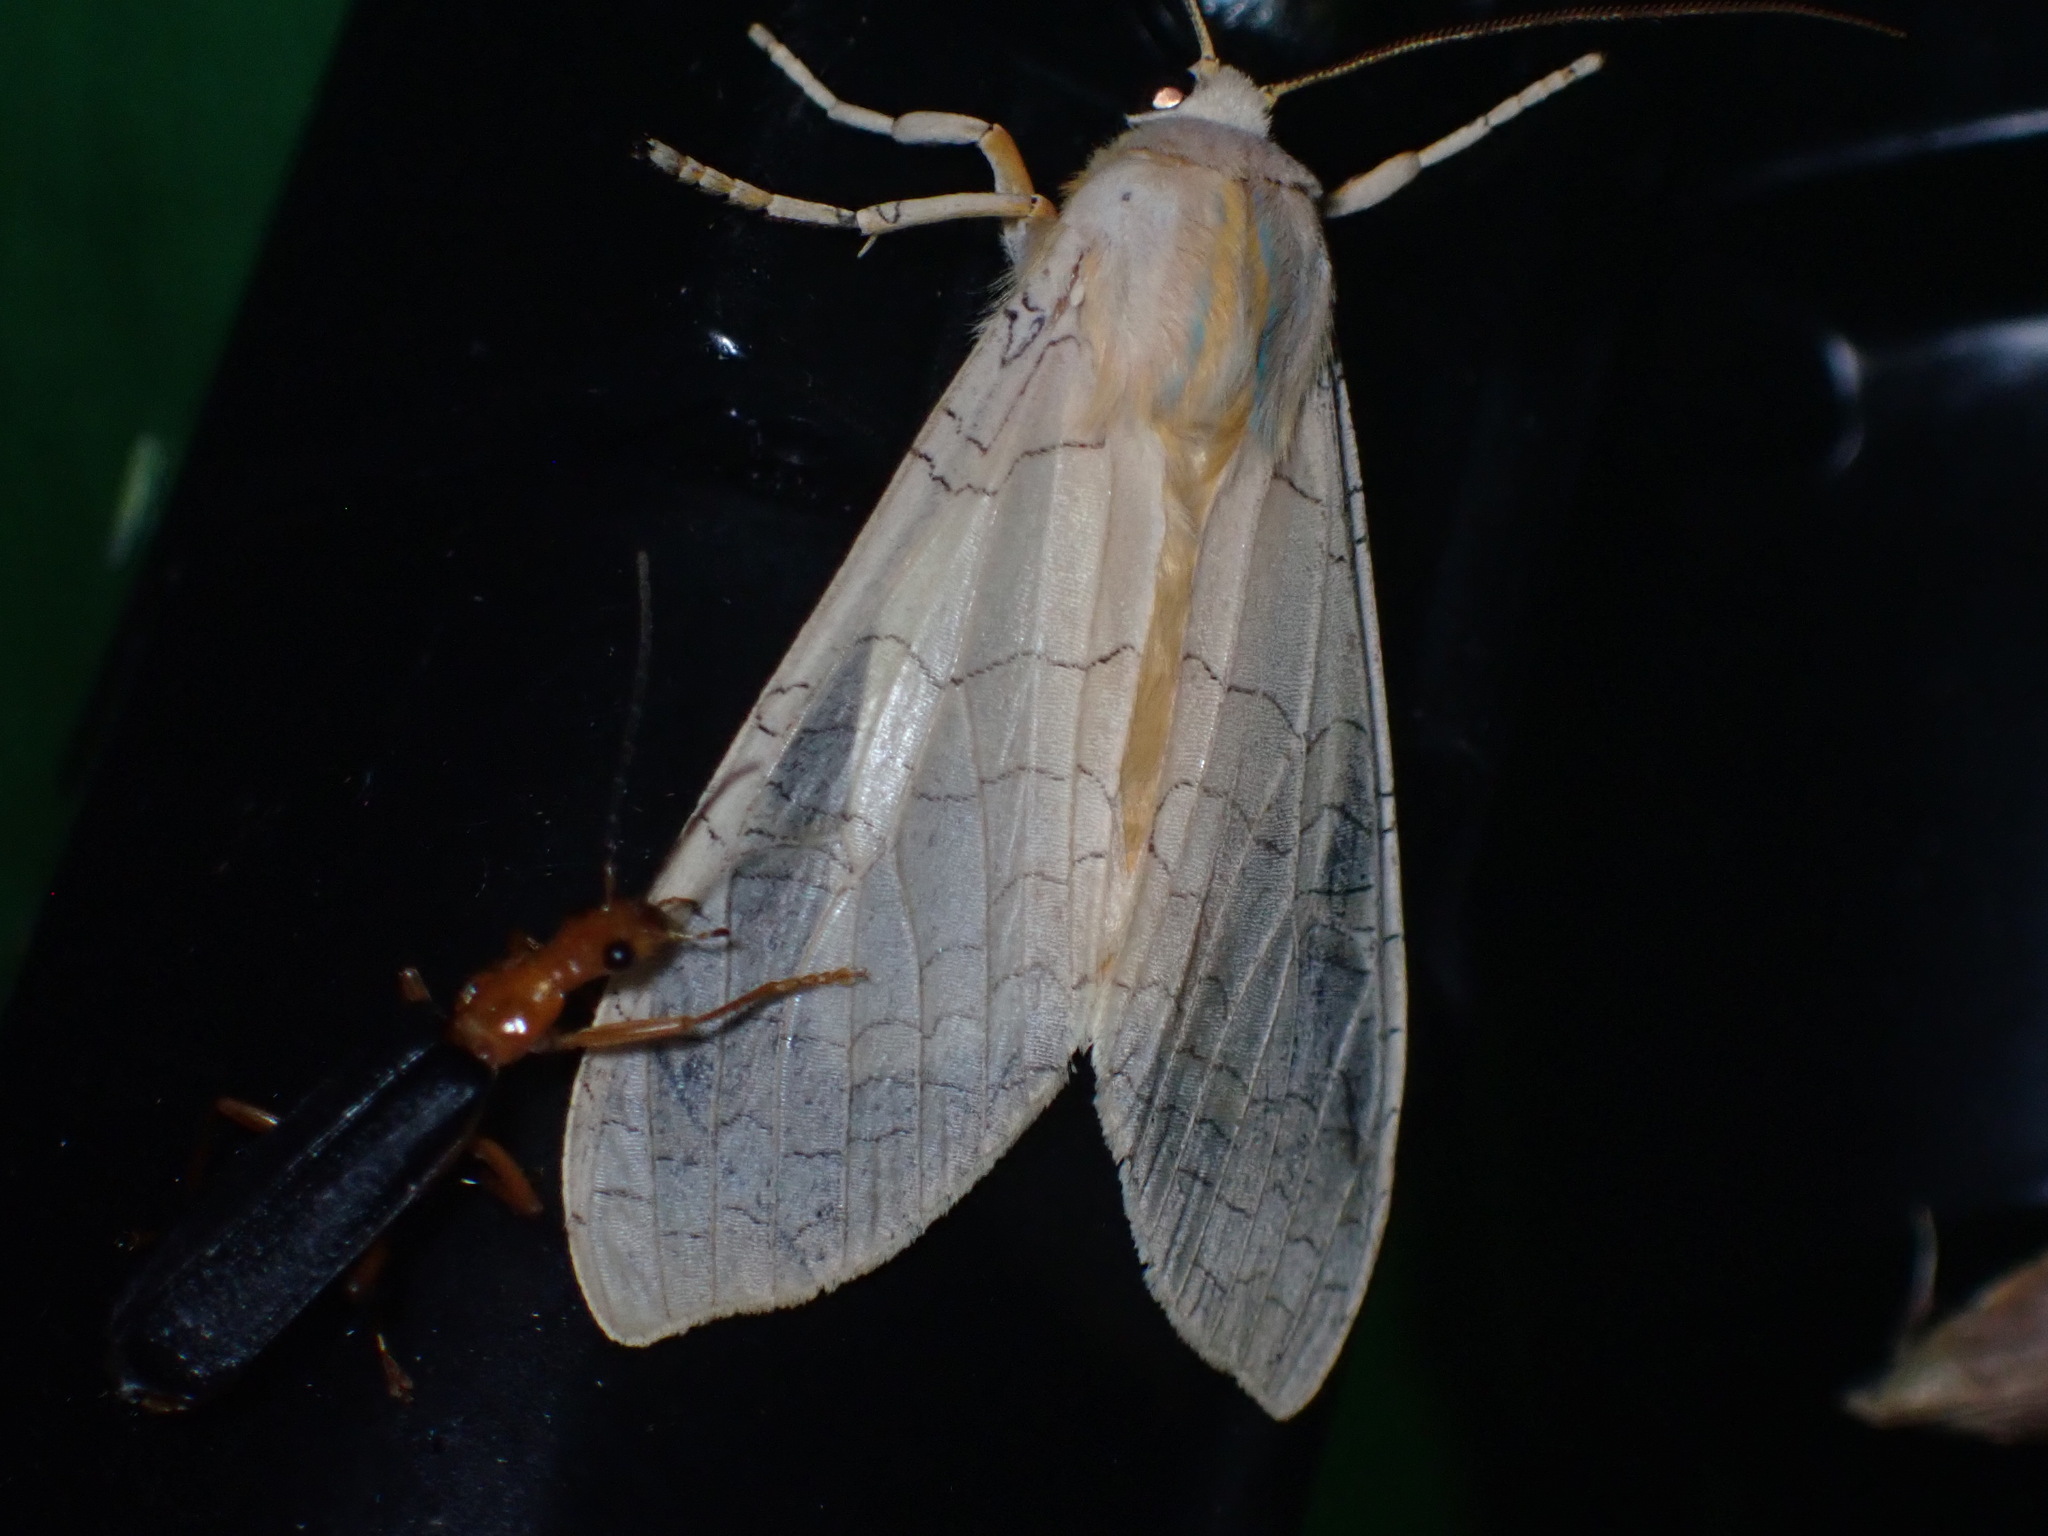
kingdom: Animalia
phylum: Arthropoda
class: Insecta
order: Coleoptera
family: Cantharidae
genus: Podabrus
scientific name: Podabrus fayi
